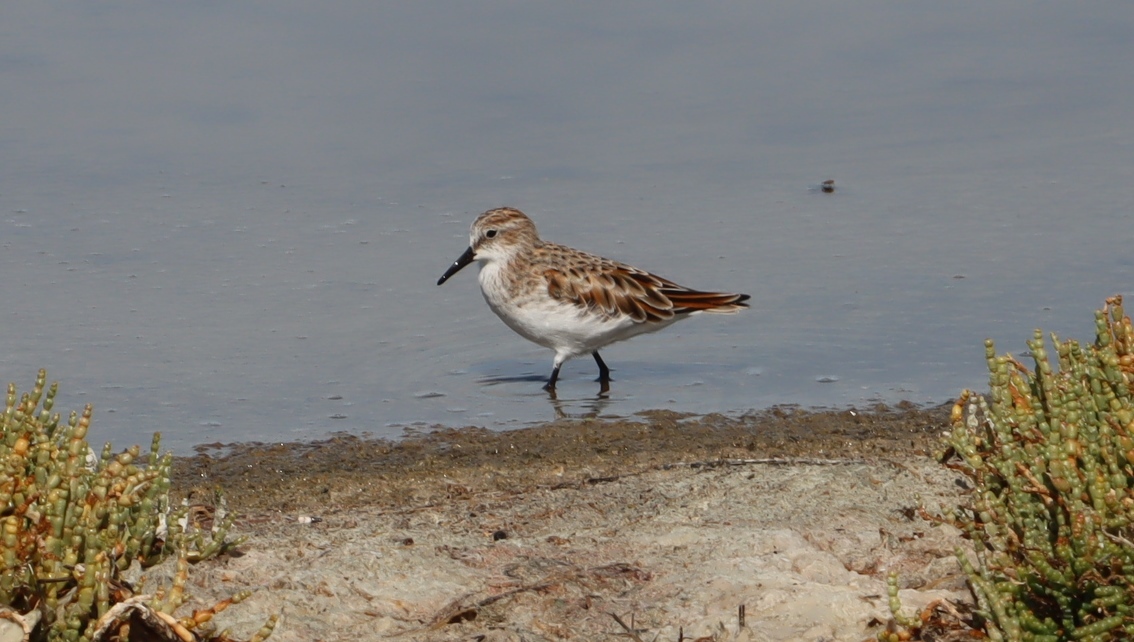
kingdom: Animalia
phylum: Chordata
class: Aves
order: Charadriiformes
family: Scolopacidae
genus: Calidris
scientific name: Calidris minuta
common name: Little stint
